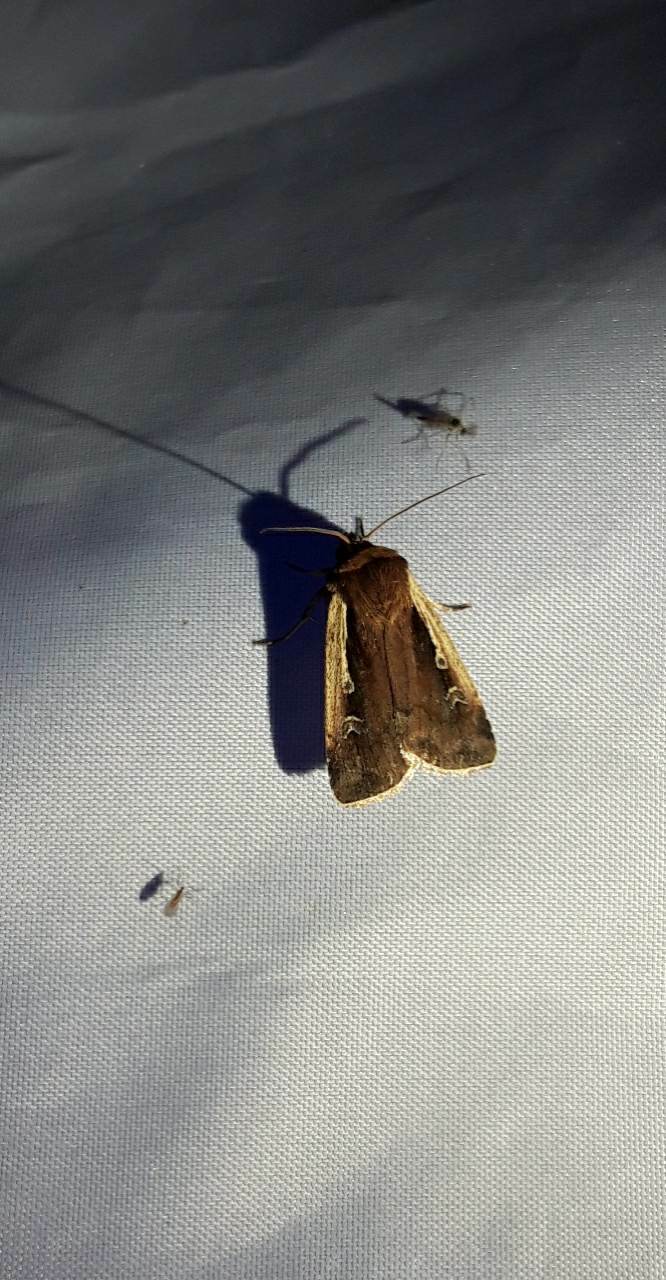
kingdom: Animalia
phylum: Arthropoda
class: Insecta
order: Lepidoptera
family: Noctuidae
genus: Ochropleura
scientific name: Ochropleura plecta
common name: Flame shoulder
